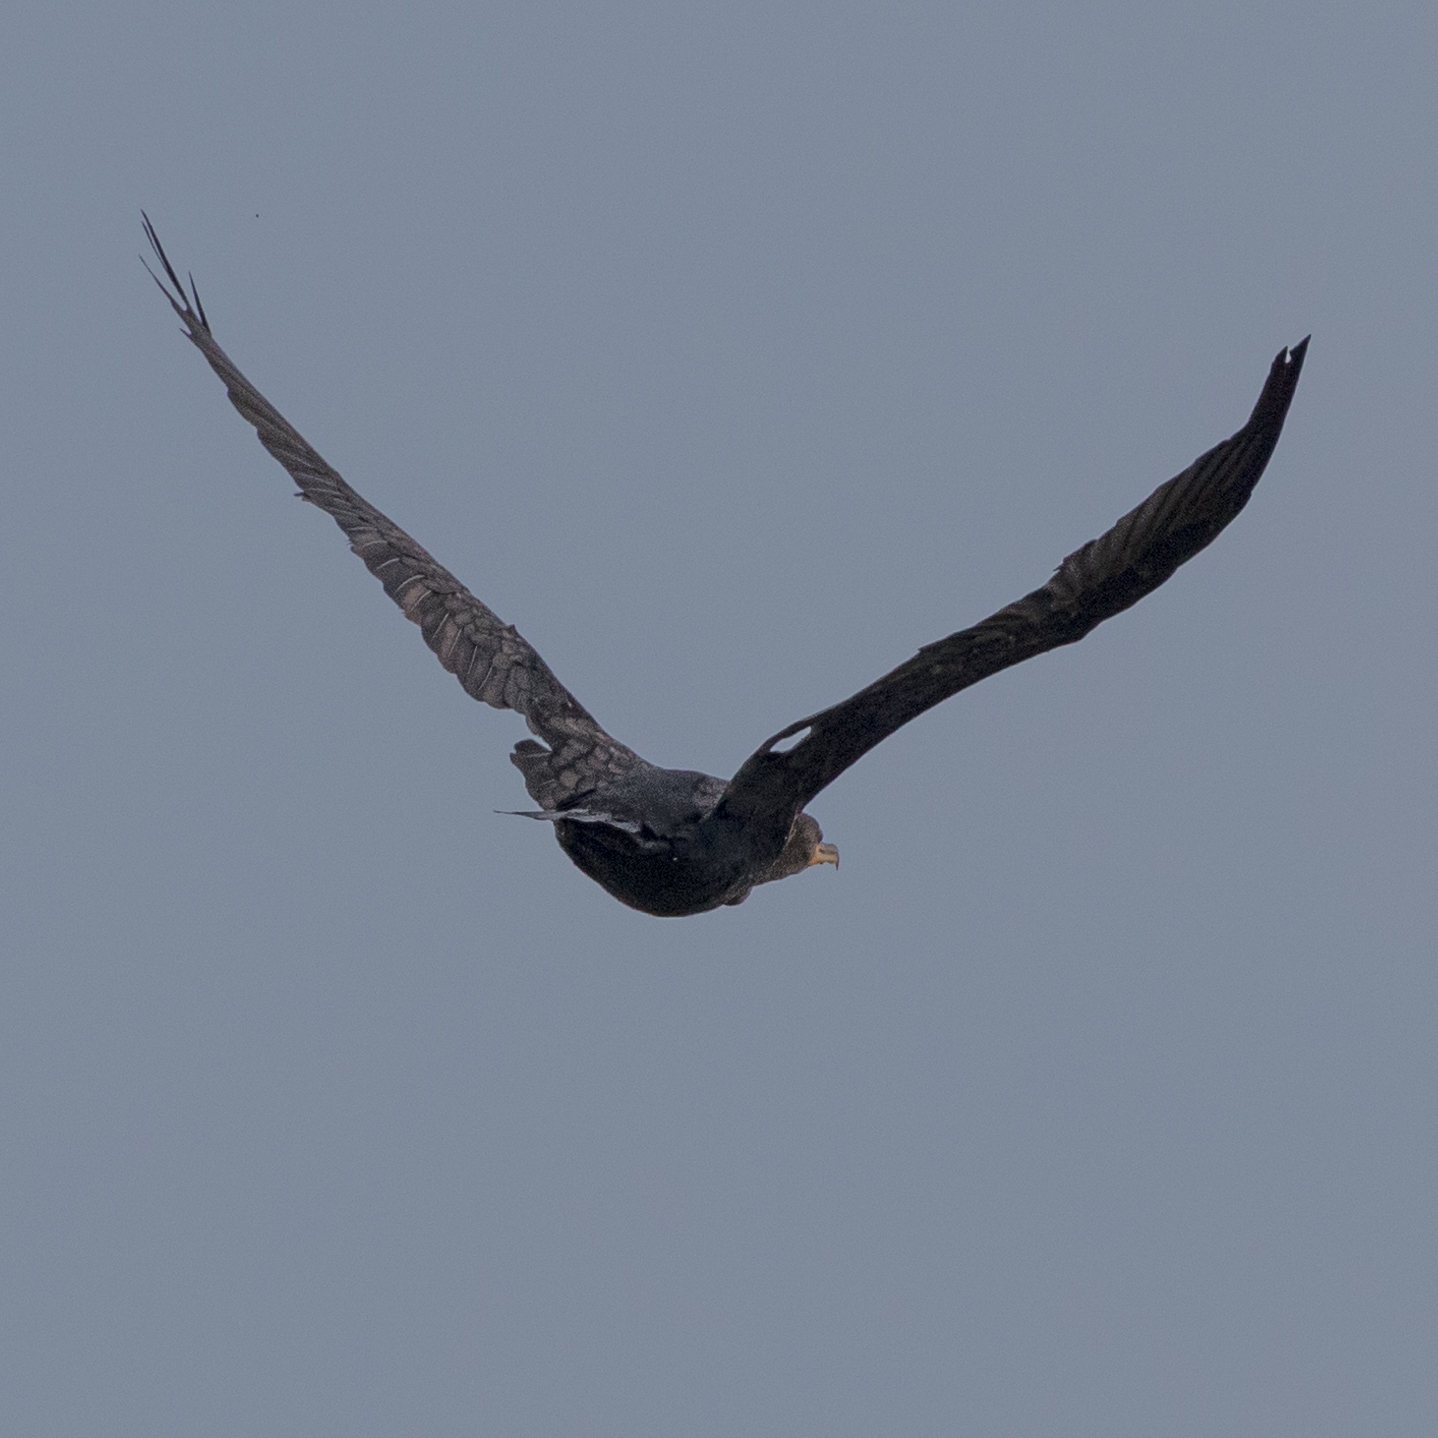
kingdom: Animalia
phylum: Chordata
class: Aves
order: Suliformes
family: Phalacrocoracidae
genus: Phalacrocorax
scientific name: Phalacrocorax auritus
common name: Double-crested cormorant
